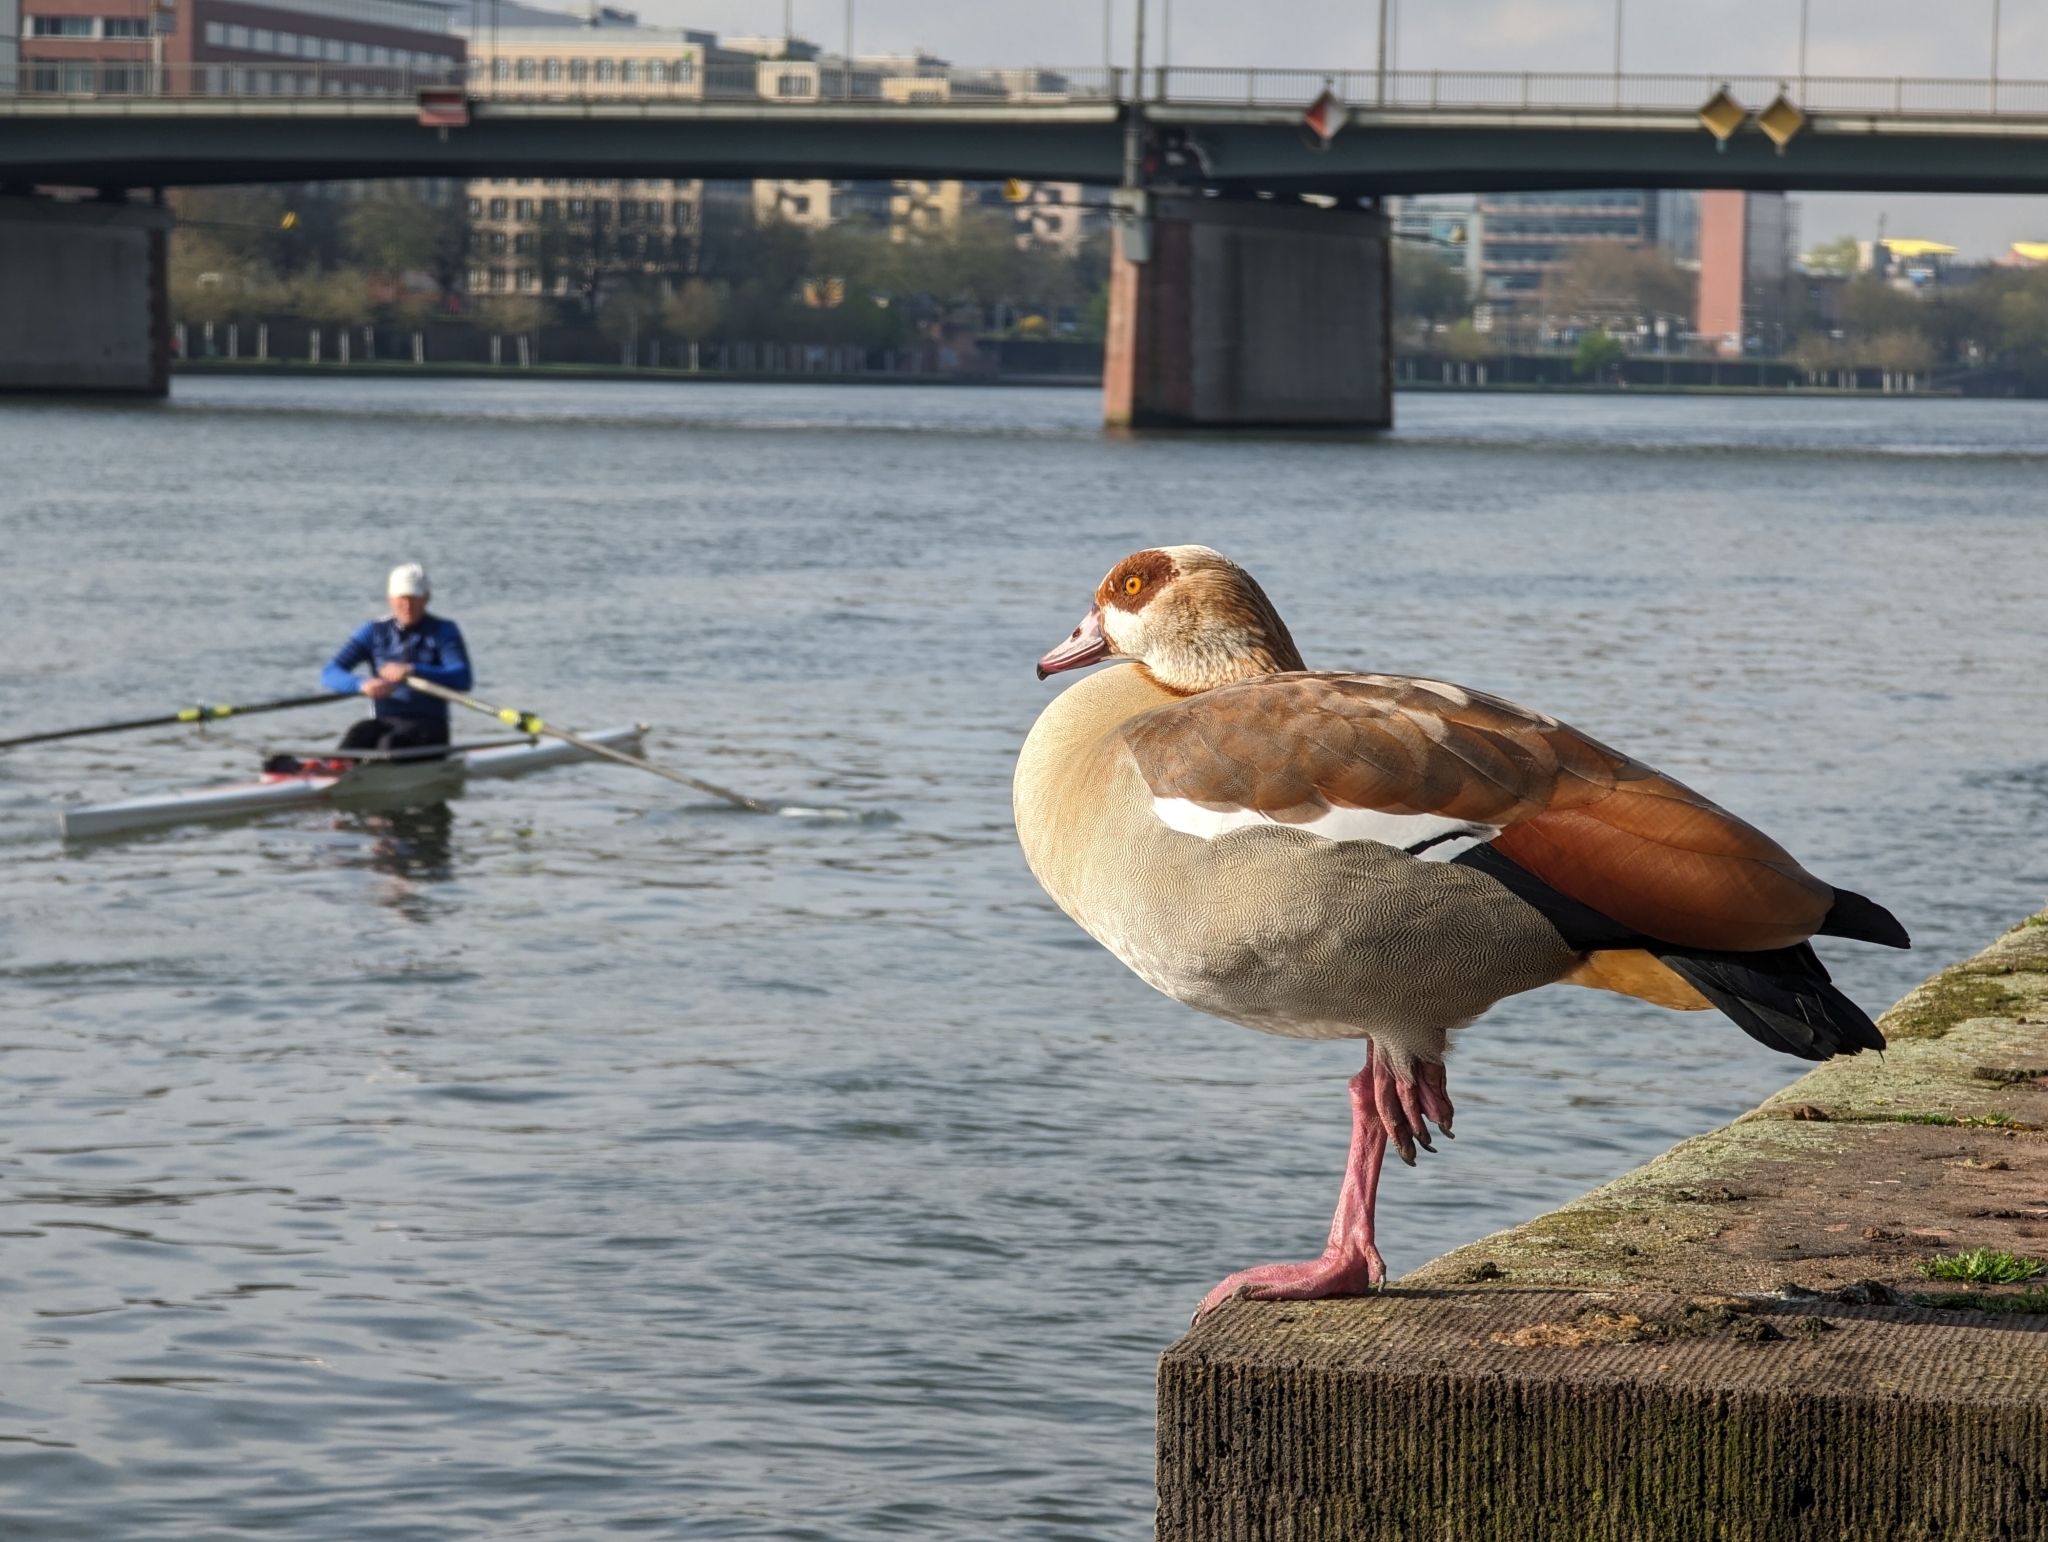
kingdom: Animalia
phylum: Chordata
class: Aves
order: Anseriformes
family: Anatidae
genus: Alopochen
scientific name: Alopochen aegyptiaca
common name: Egyptian goose
